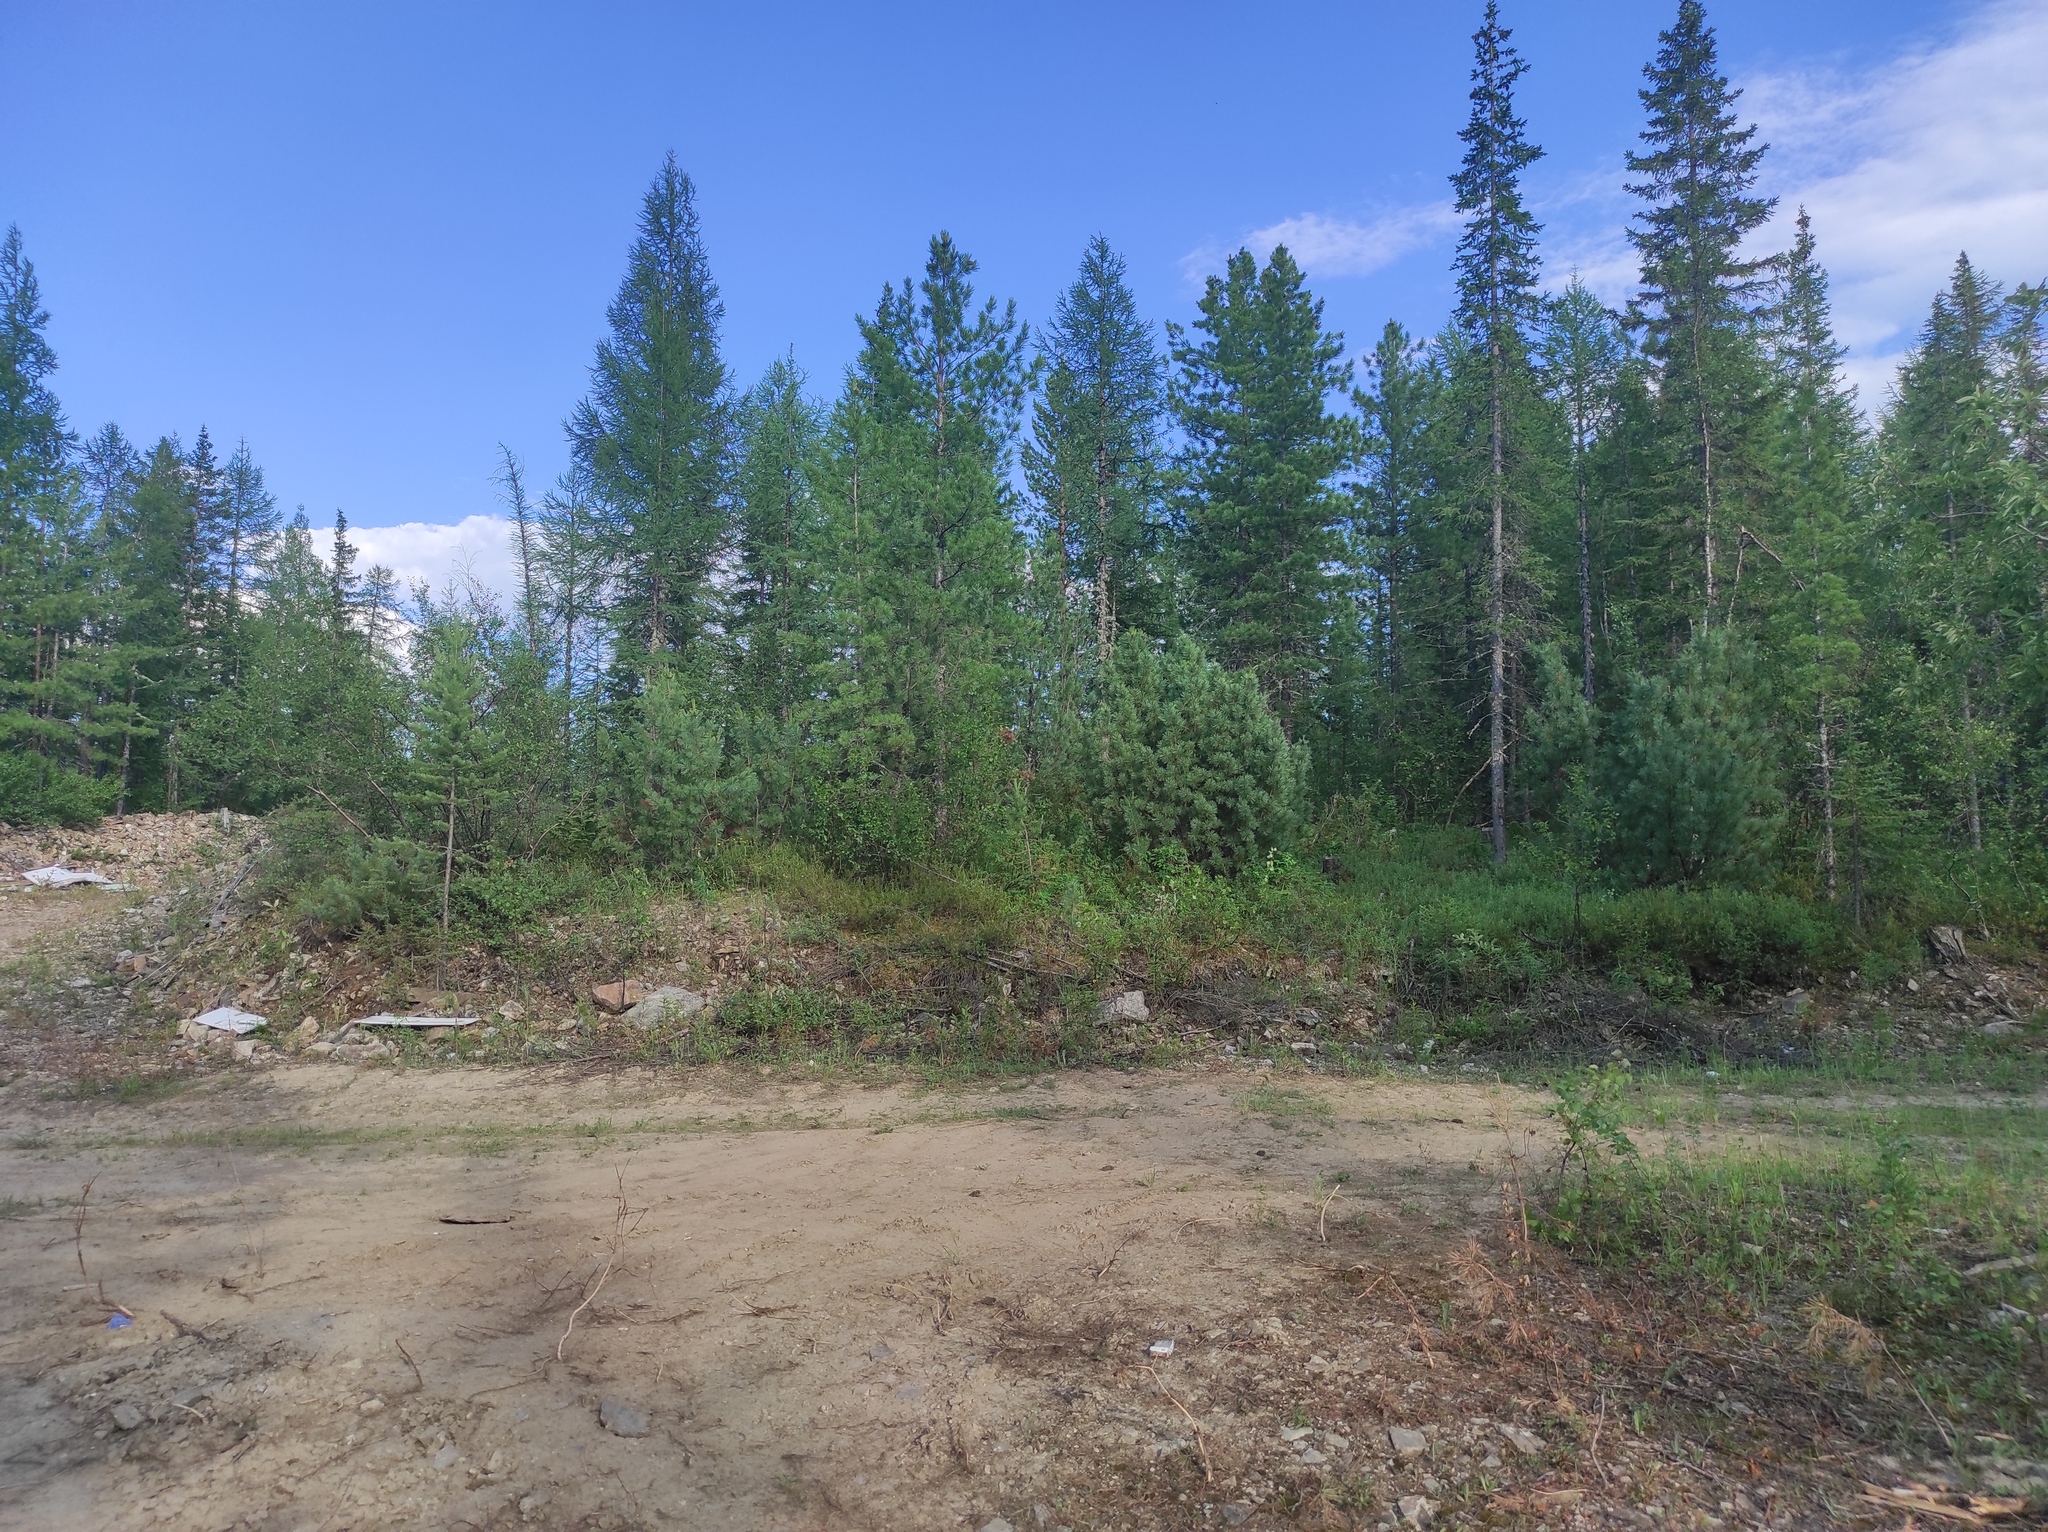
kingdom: Plantae
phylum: Tracheophyta
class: Pinopsida
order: Pinales
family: Pinaceae
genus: Picea
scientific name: Picea obovata
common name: Siberian spruce
